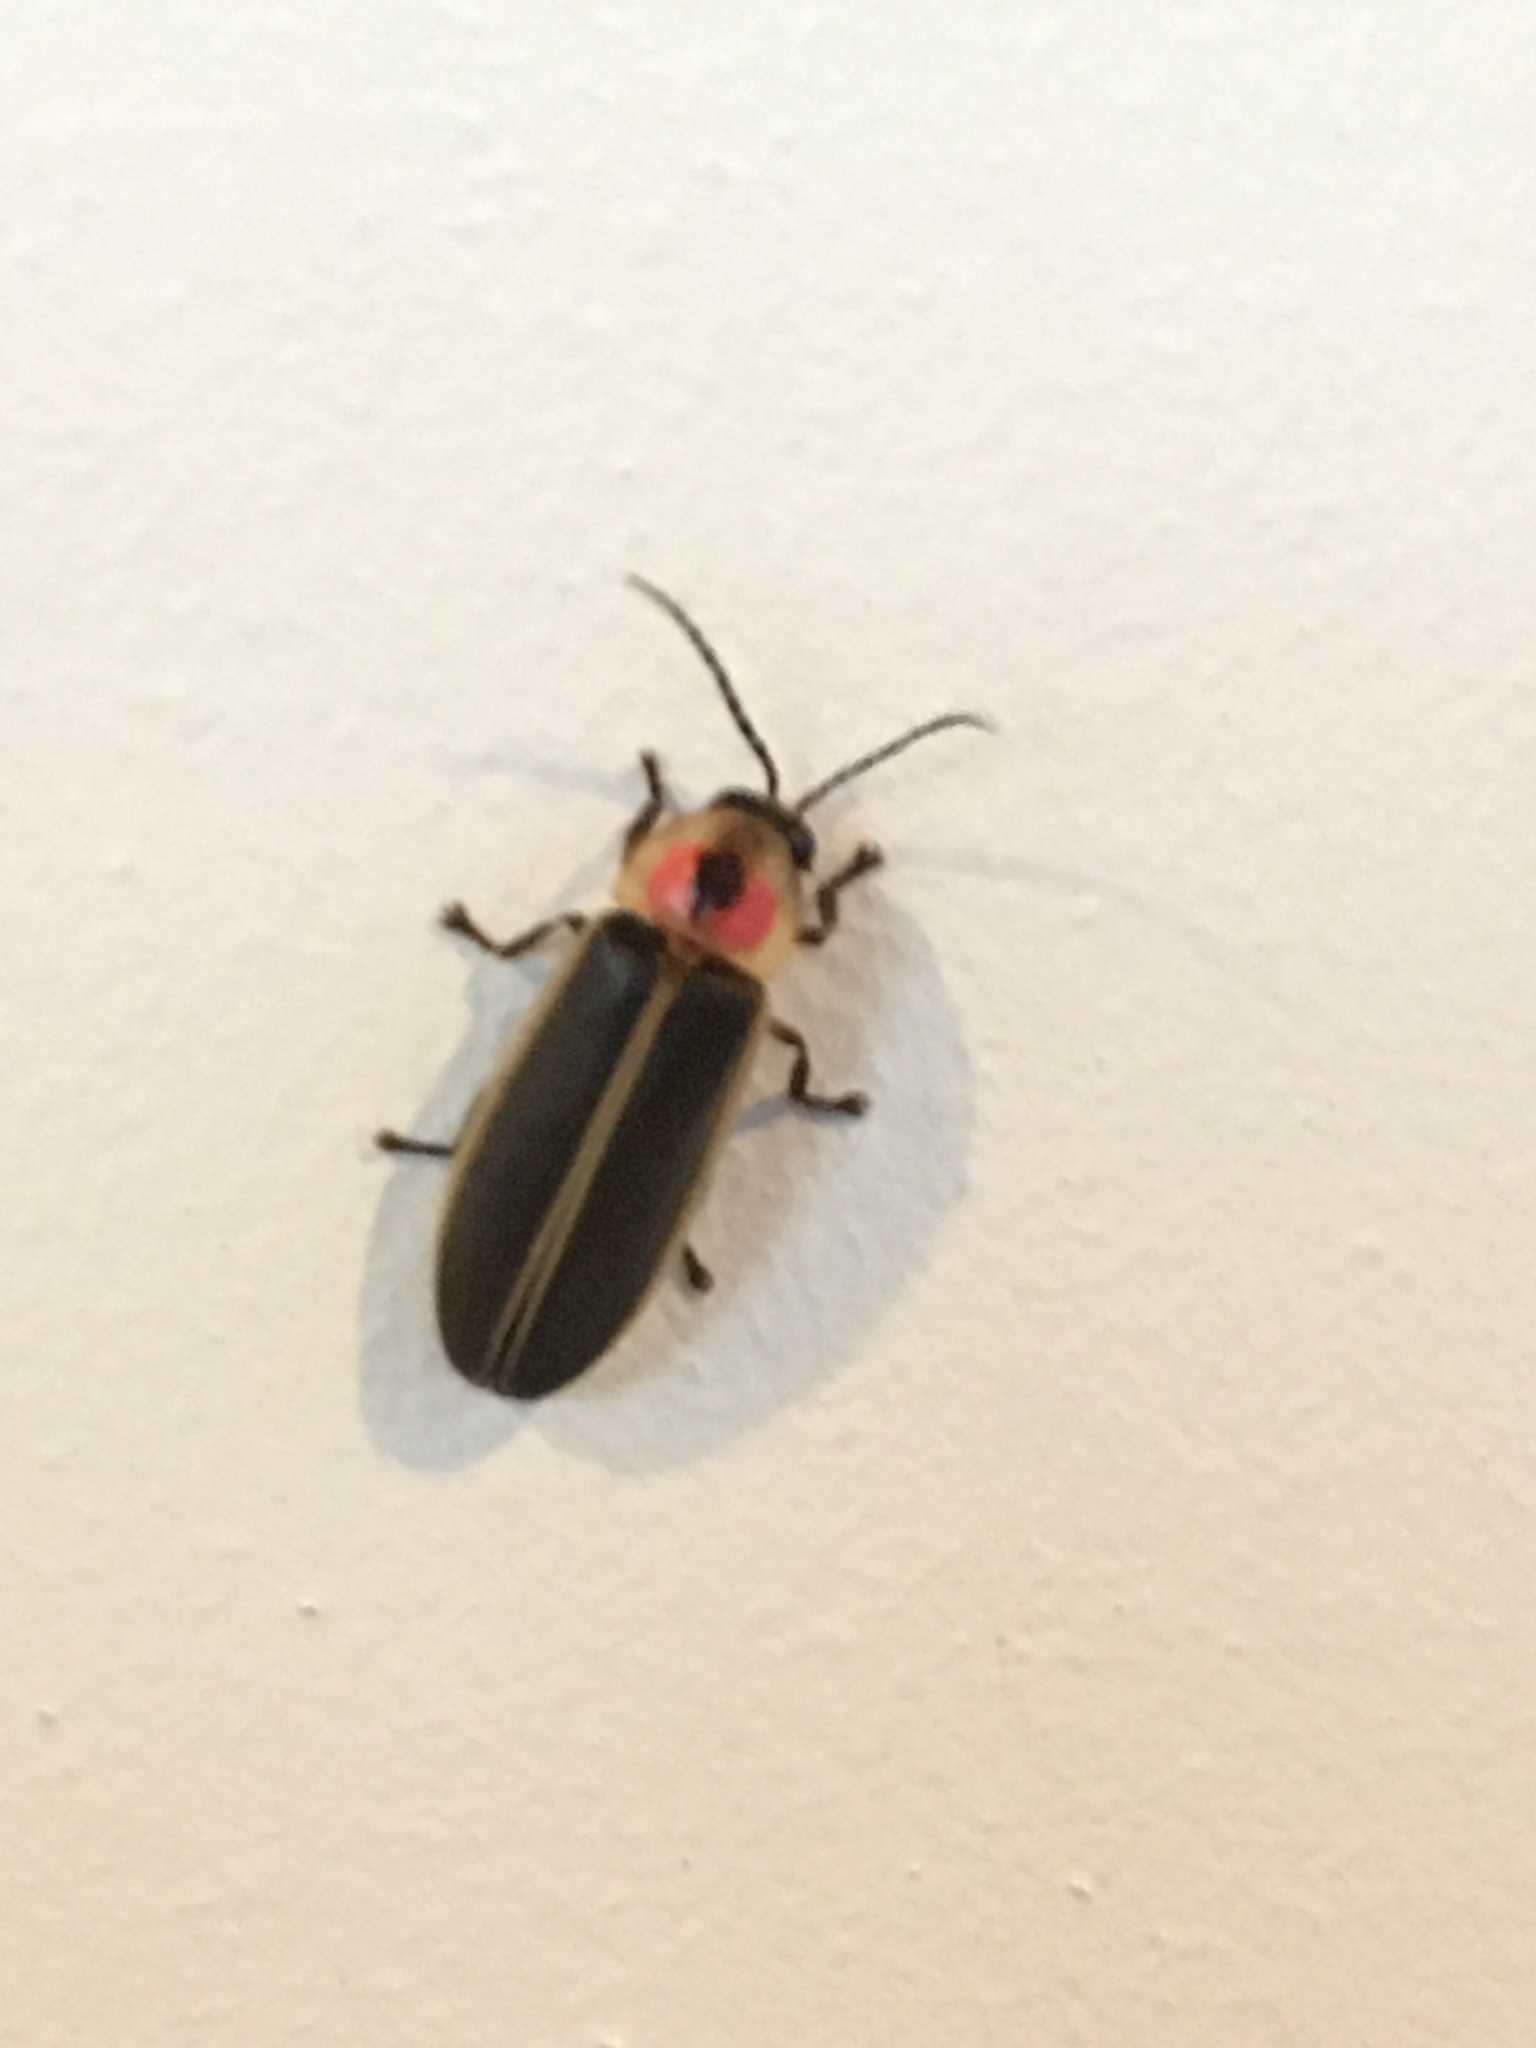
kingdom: Animalia
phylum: Arthropoda
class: Insecta
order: Coleoptera
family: Lampyridae
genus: Photinus
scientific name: Photinus pyralis
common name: Big dipper firefly
